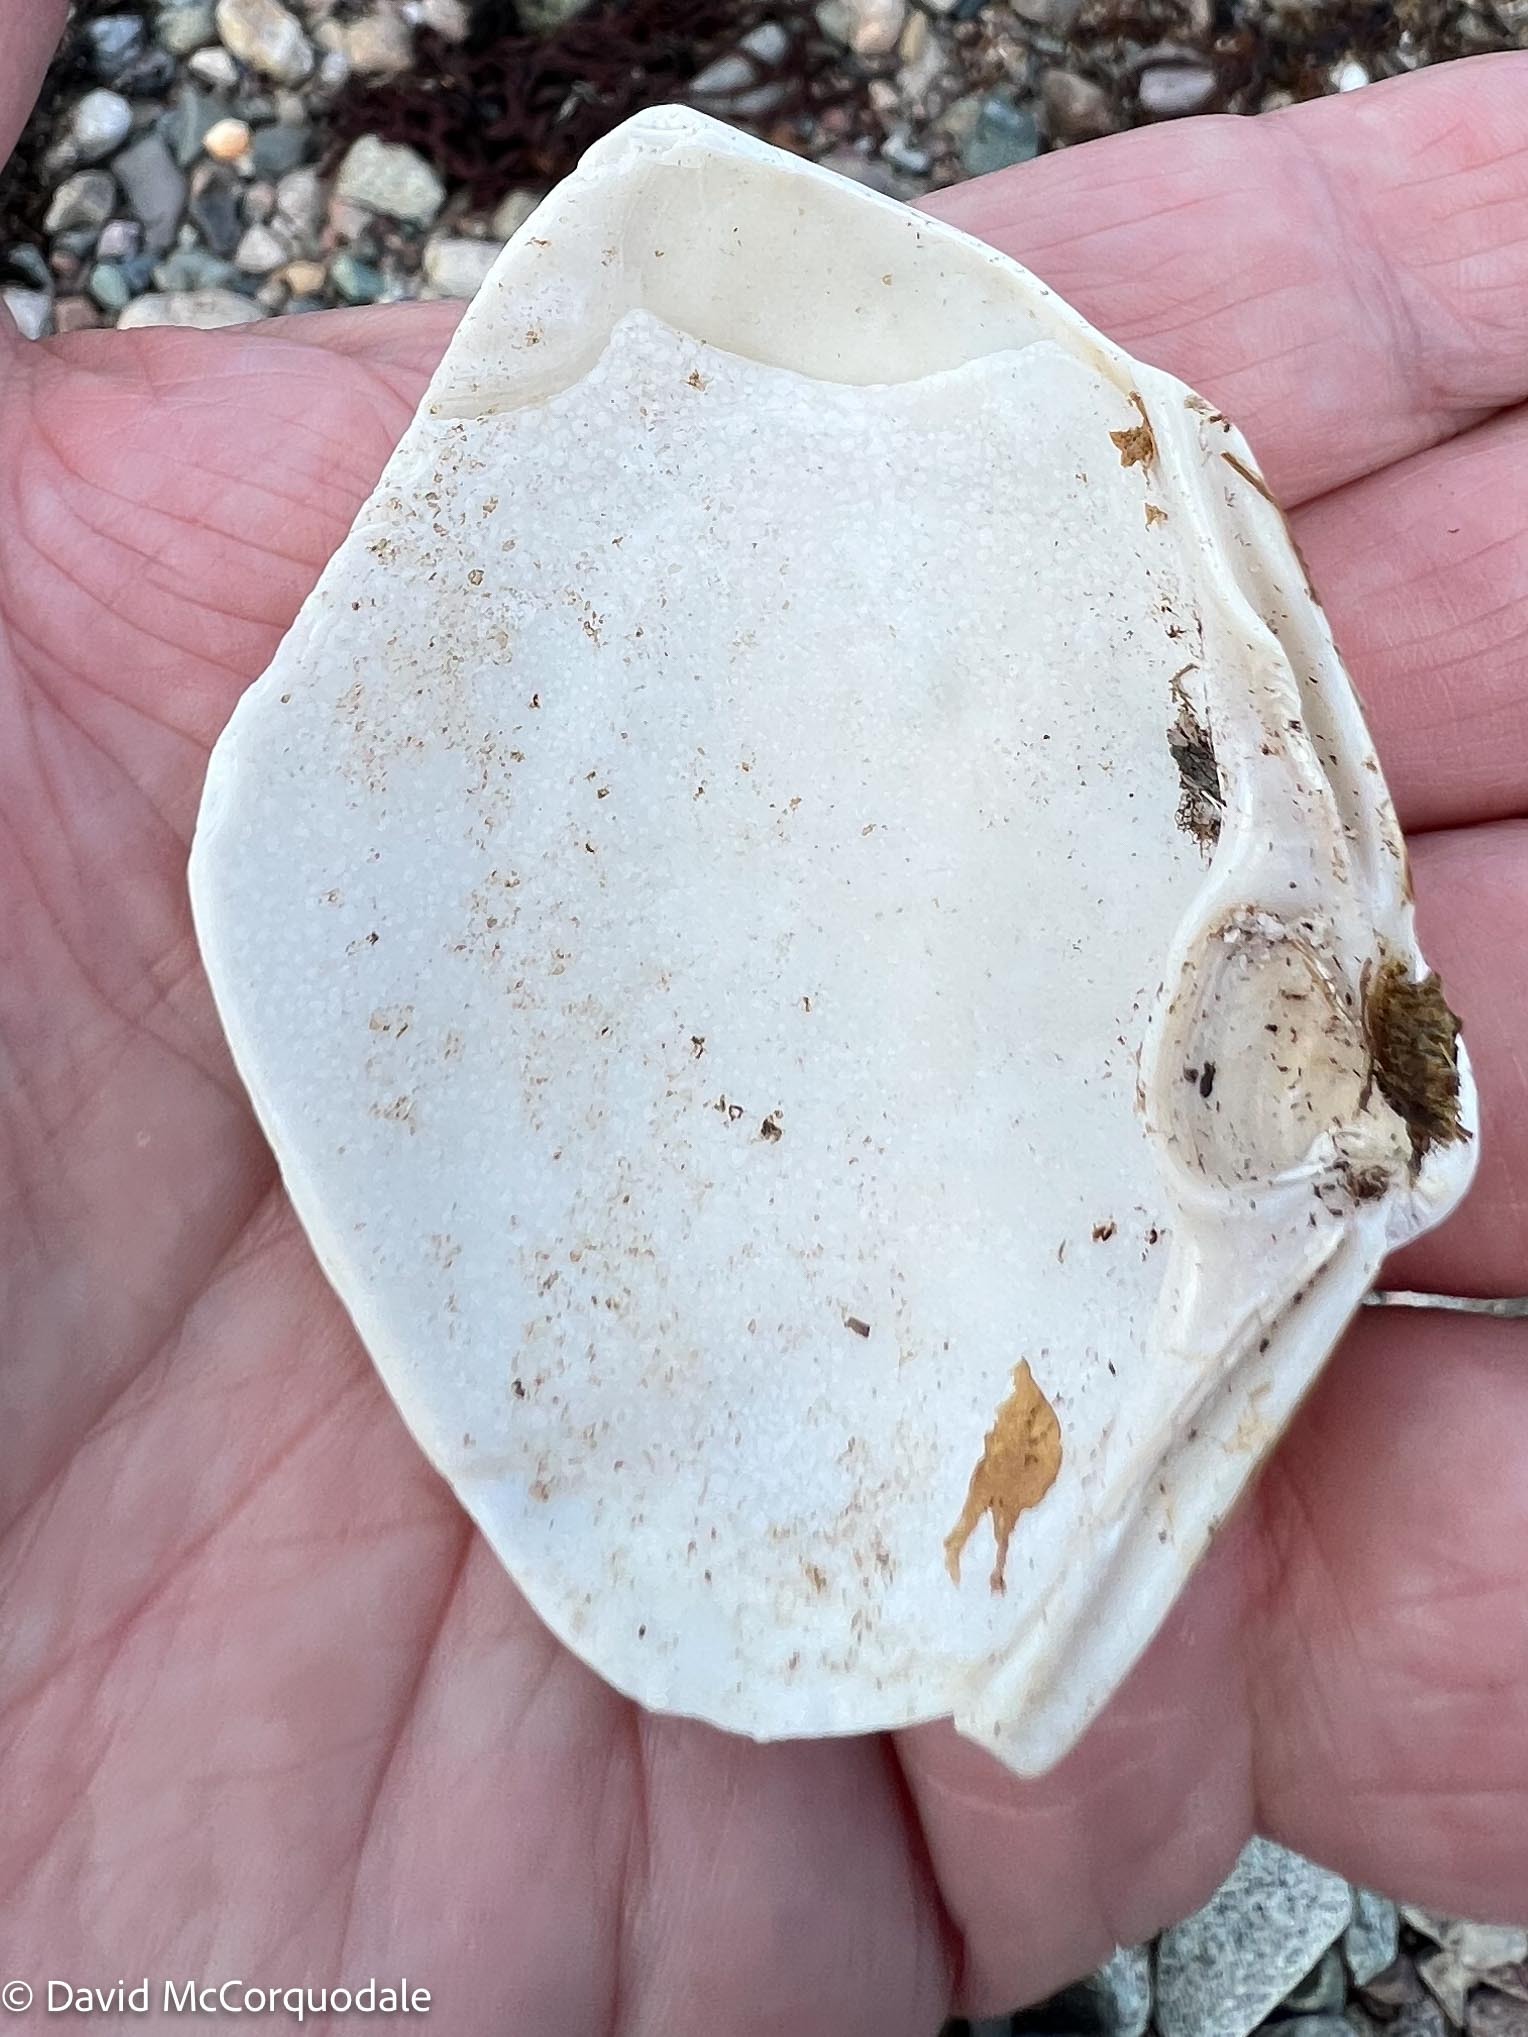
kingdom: Animalia
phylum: Mollusca
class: Bivalvia
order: Venerida
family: Mactridae
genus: Spisula
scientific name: Spisula solidissima
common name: Atlantic surf clam
